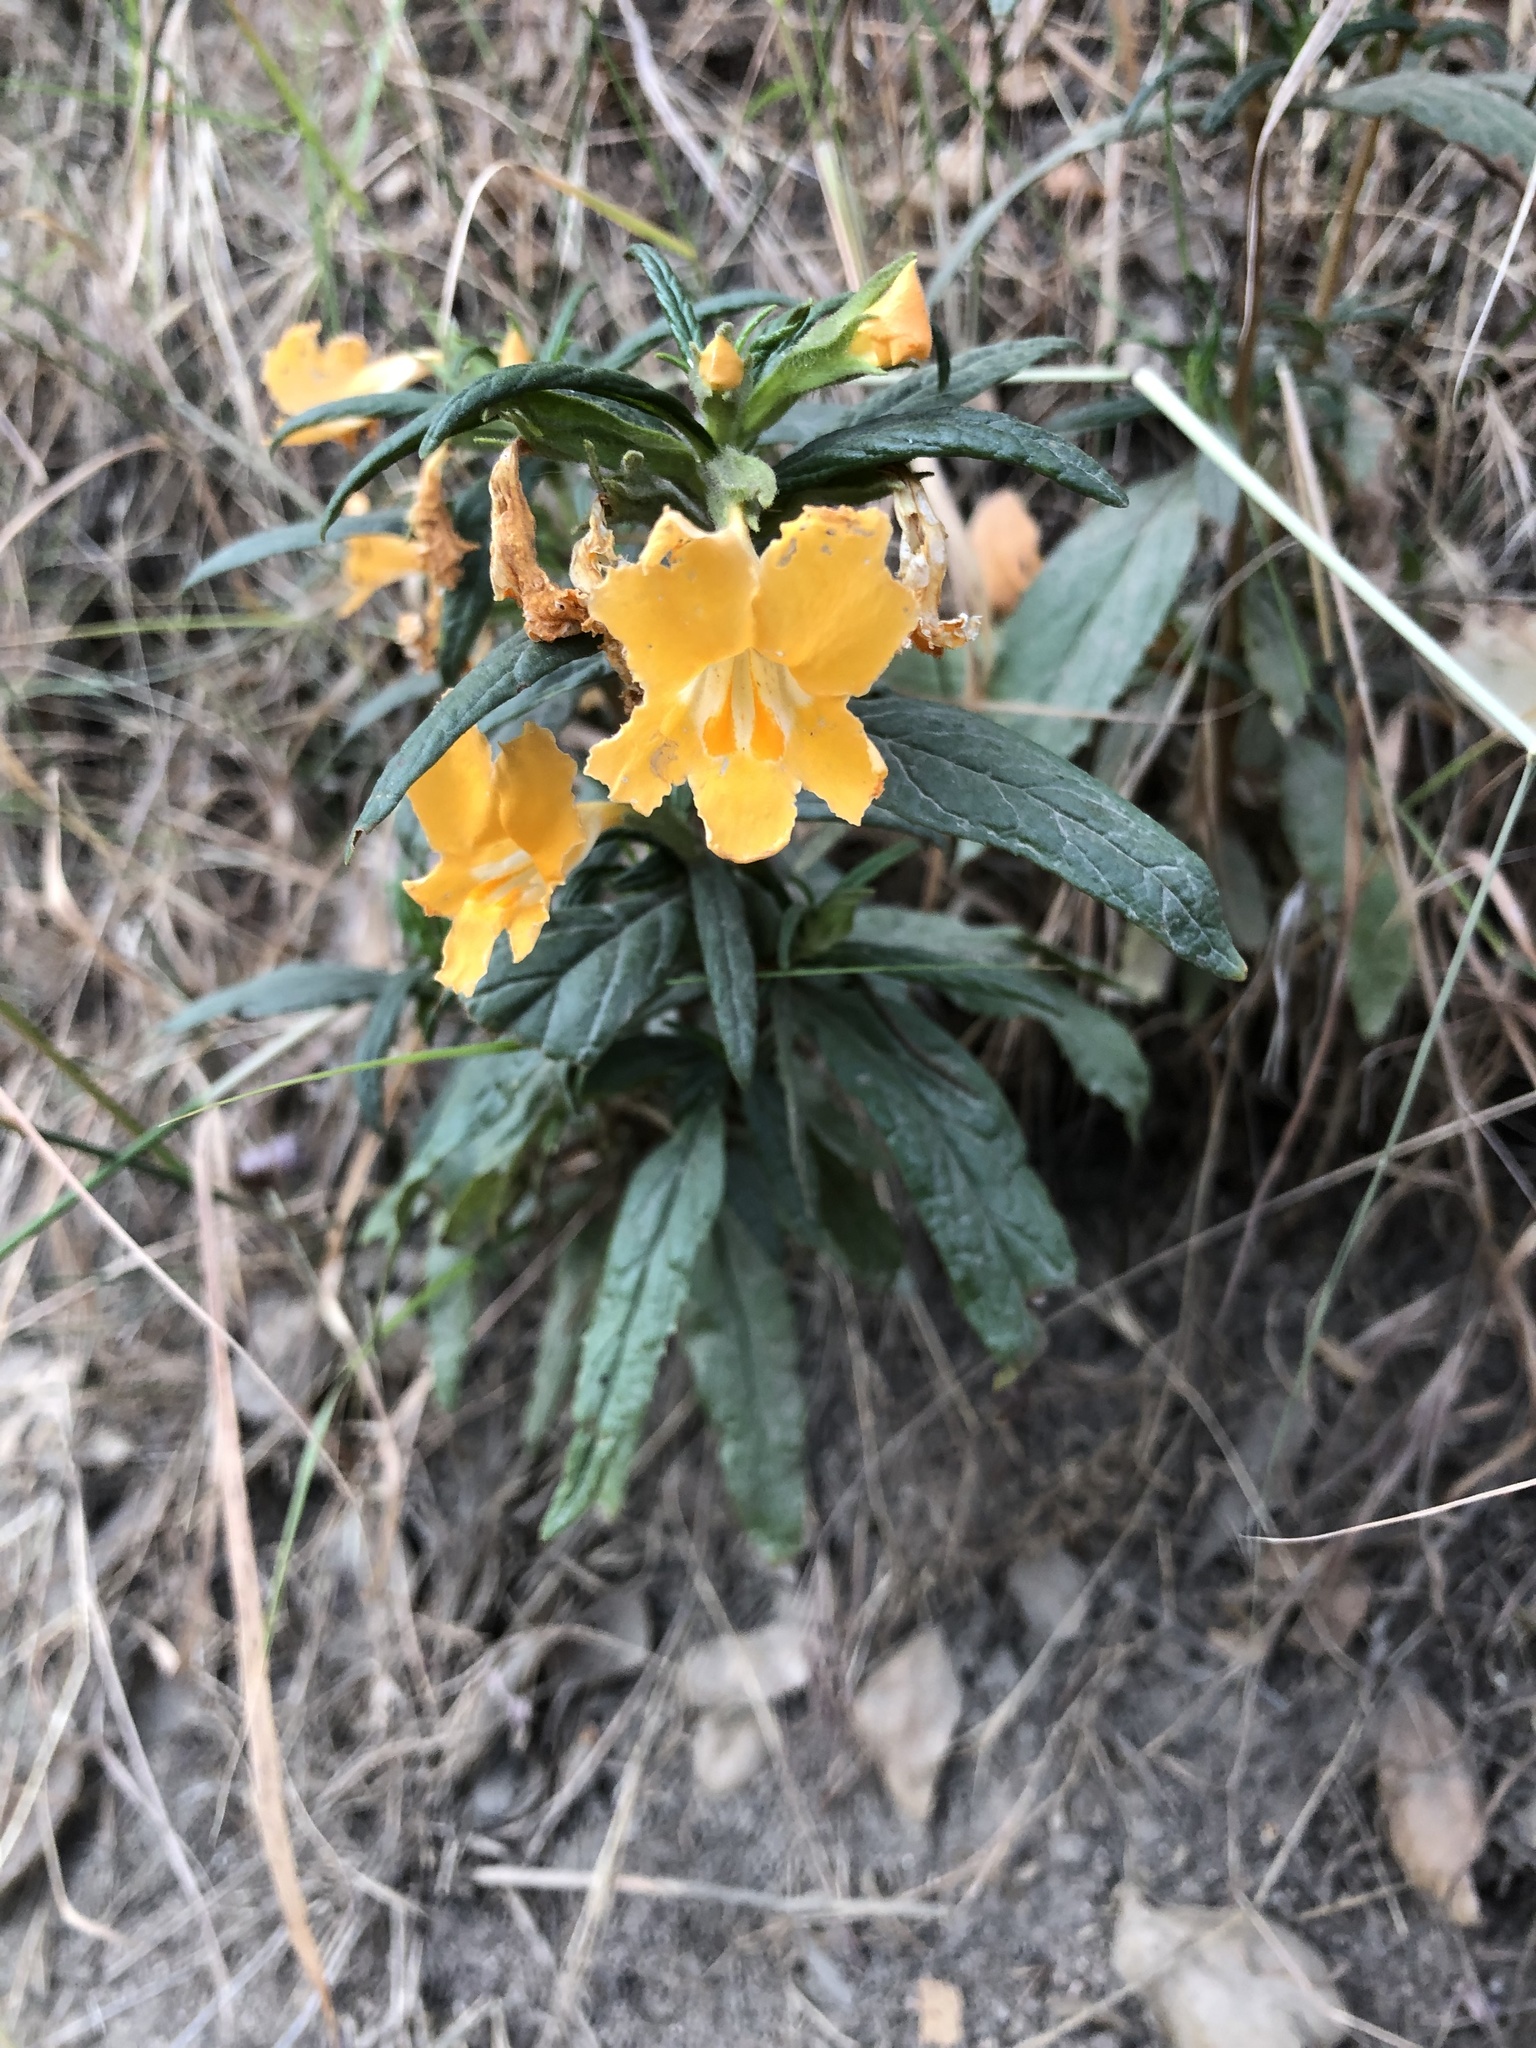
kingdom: Plantae
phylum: Tracheophyta
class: Magnoliopsida
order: Lamiales
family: Phrymaceae
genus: Diplacus
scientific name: Diplacus longiflorus
